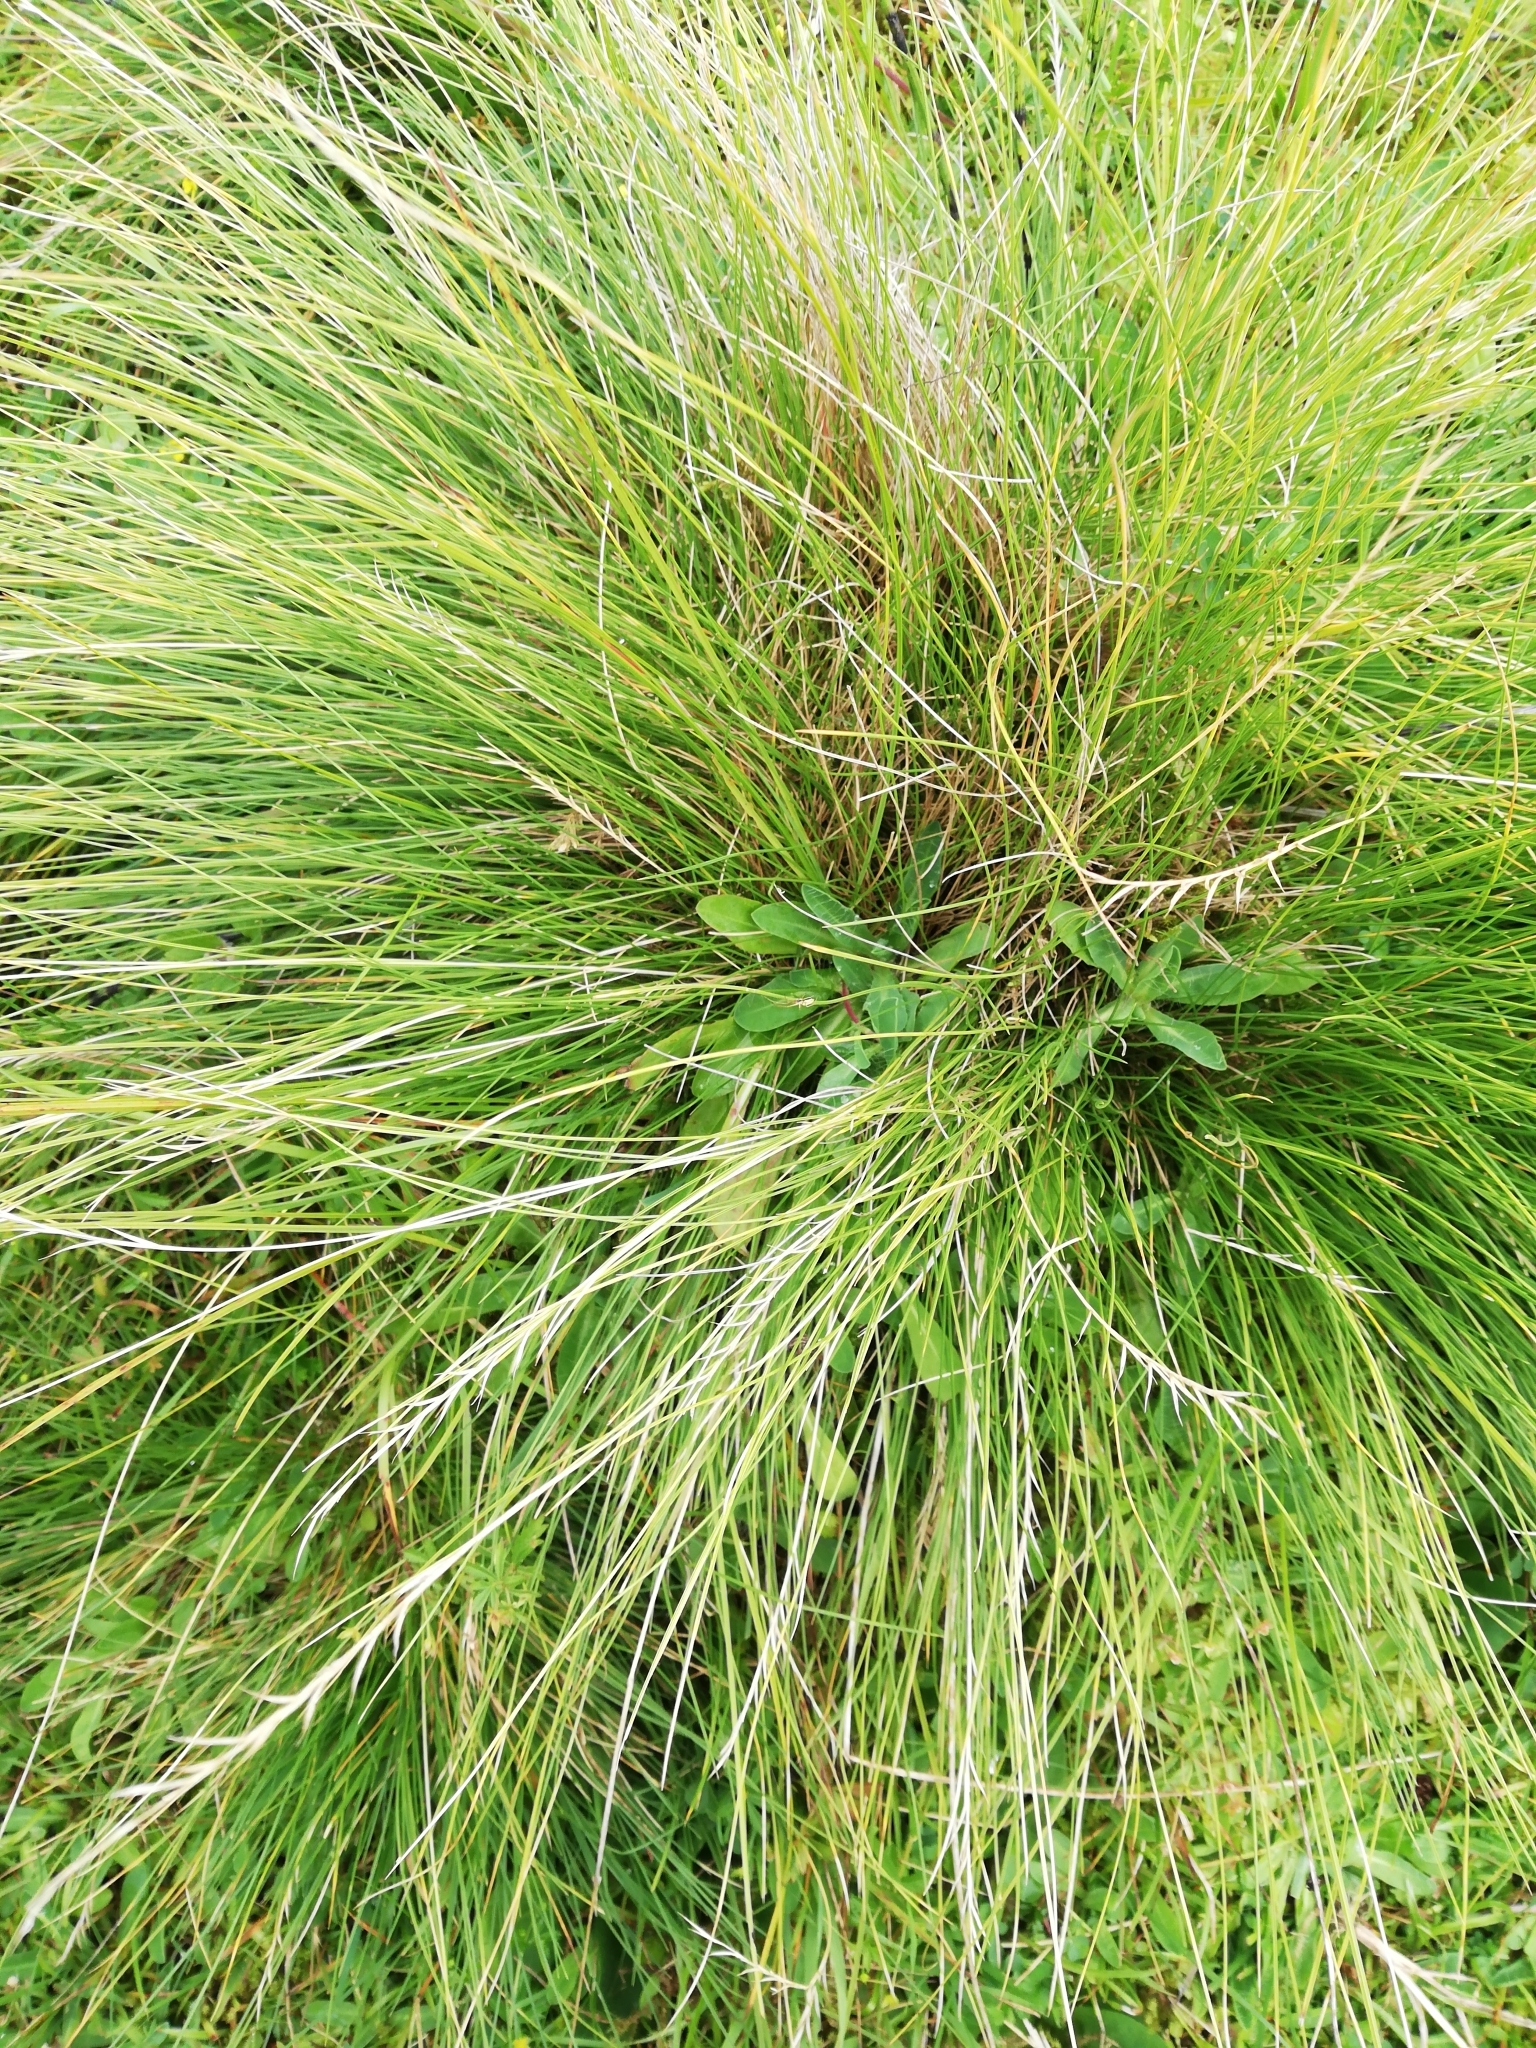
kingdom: Plantae
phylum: Tracheophyta
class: Liliopsida
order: Poales
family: Poaceae
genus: Nardus
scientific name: Nardus stricta
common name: Mat-grass
